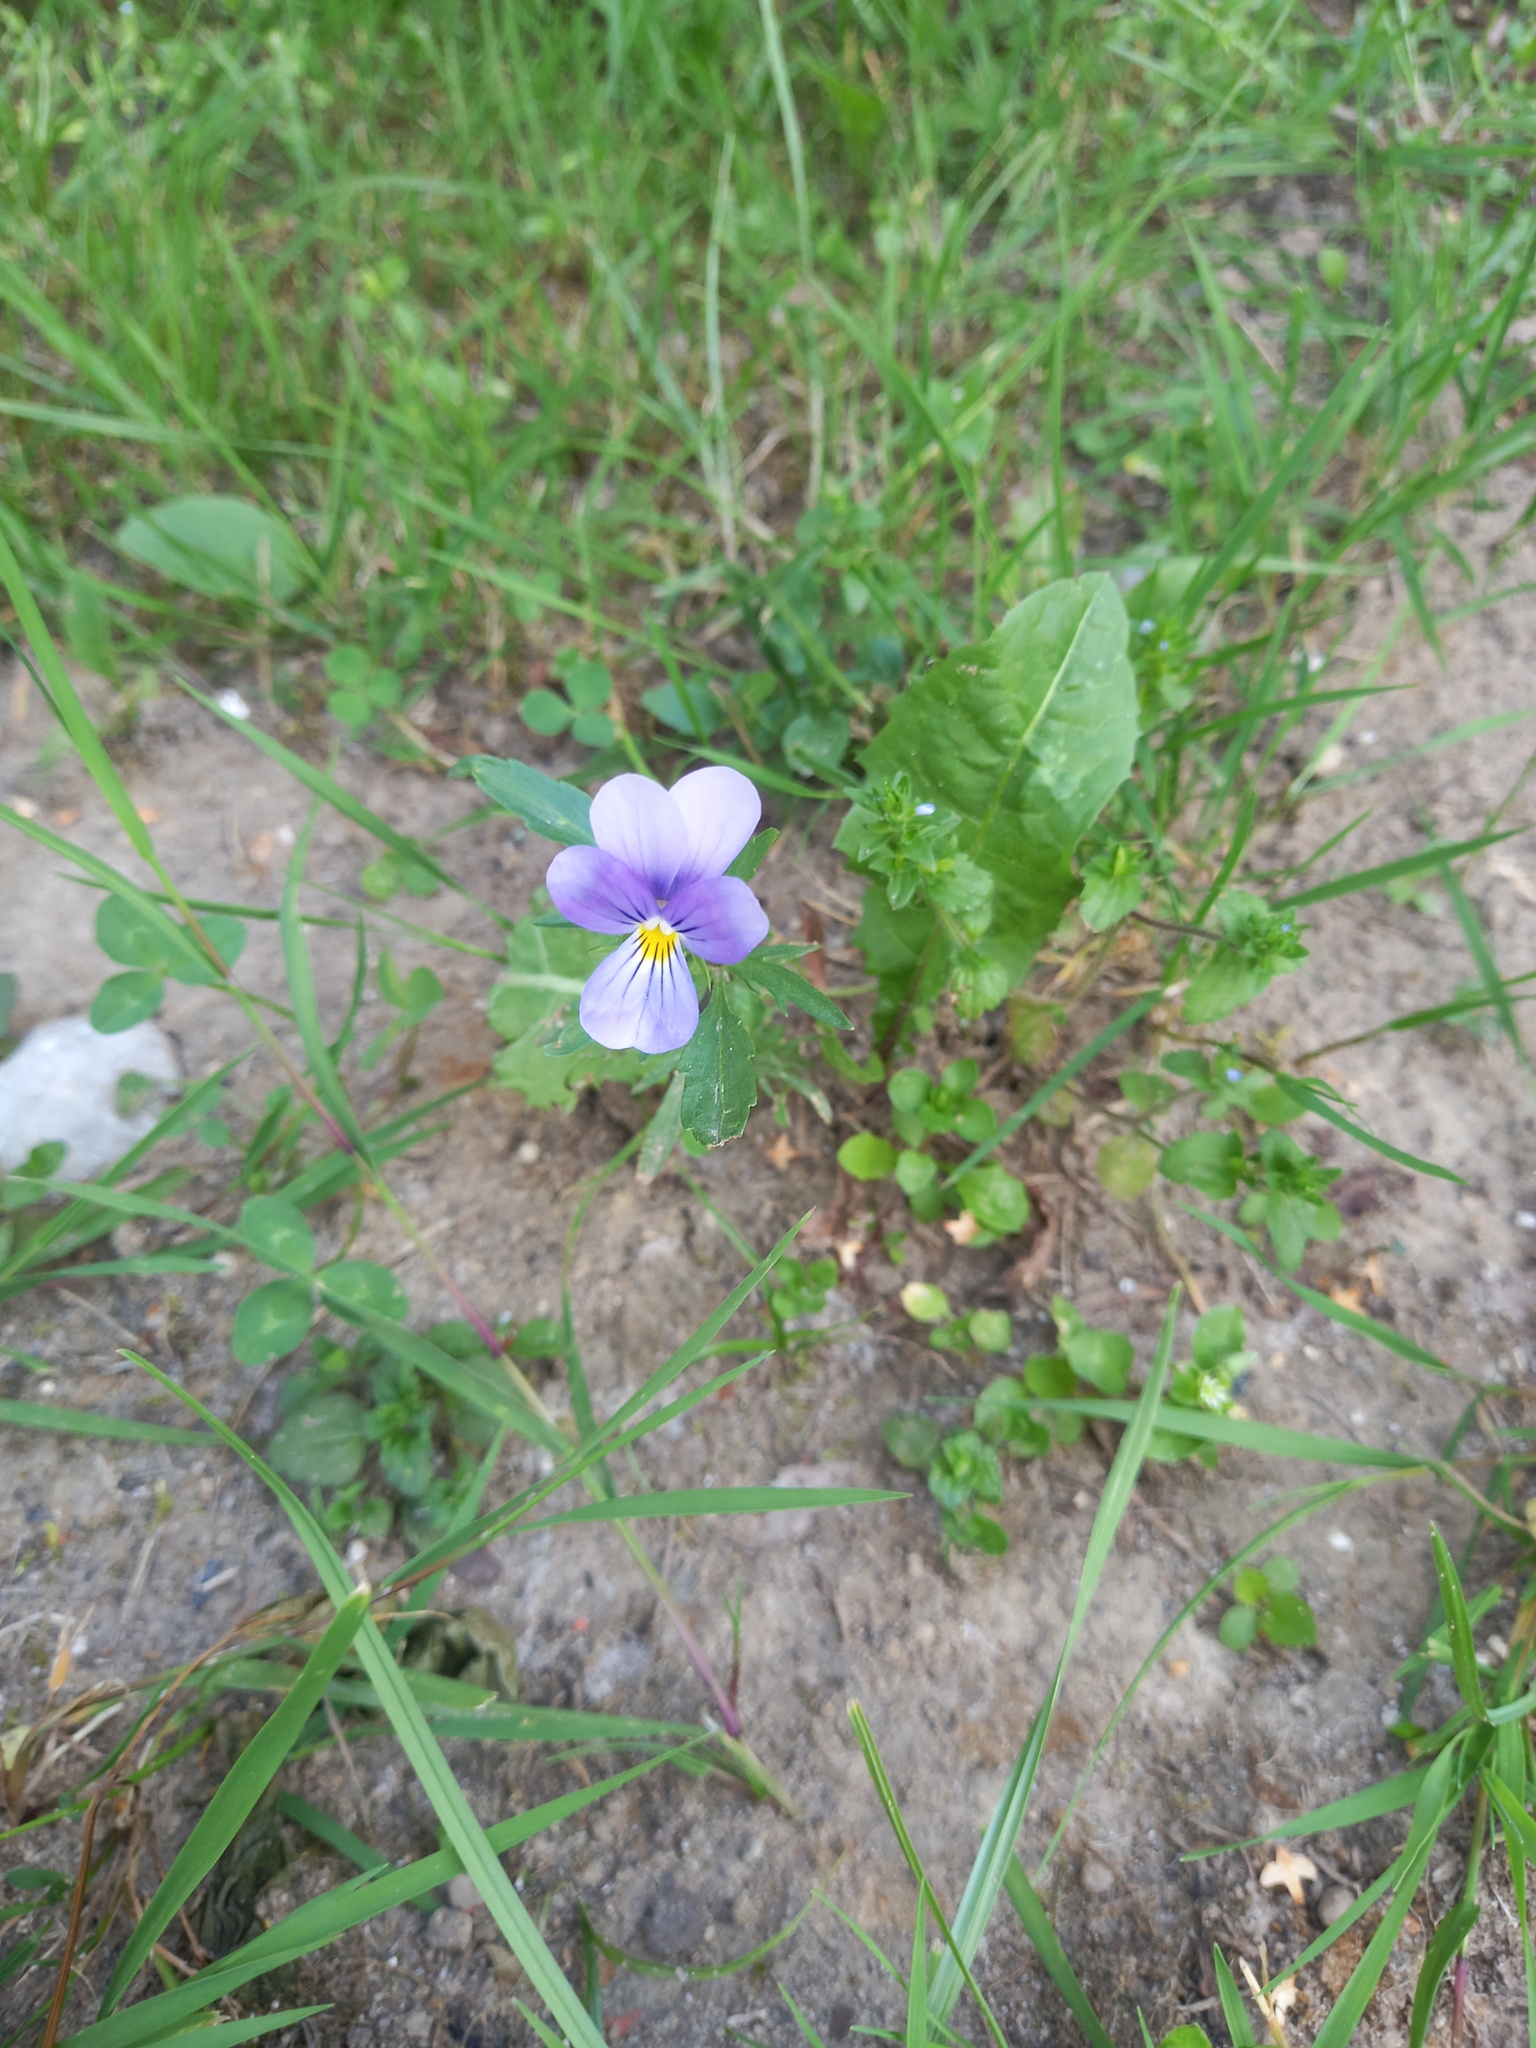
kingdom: Plantae
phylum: Tracheophyta
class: Magnoliopsida
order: Malpighiales
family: Violaceae
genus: Viola
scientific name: Viola tricolor
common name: Pansy
